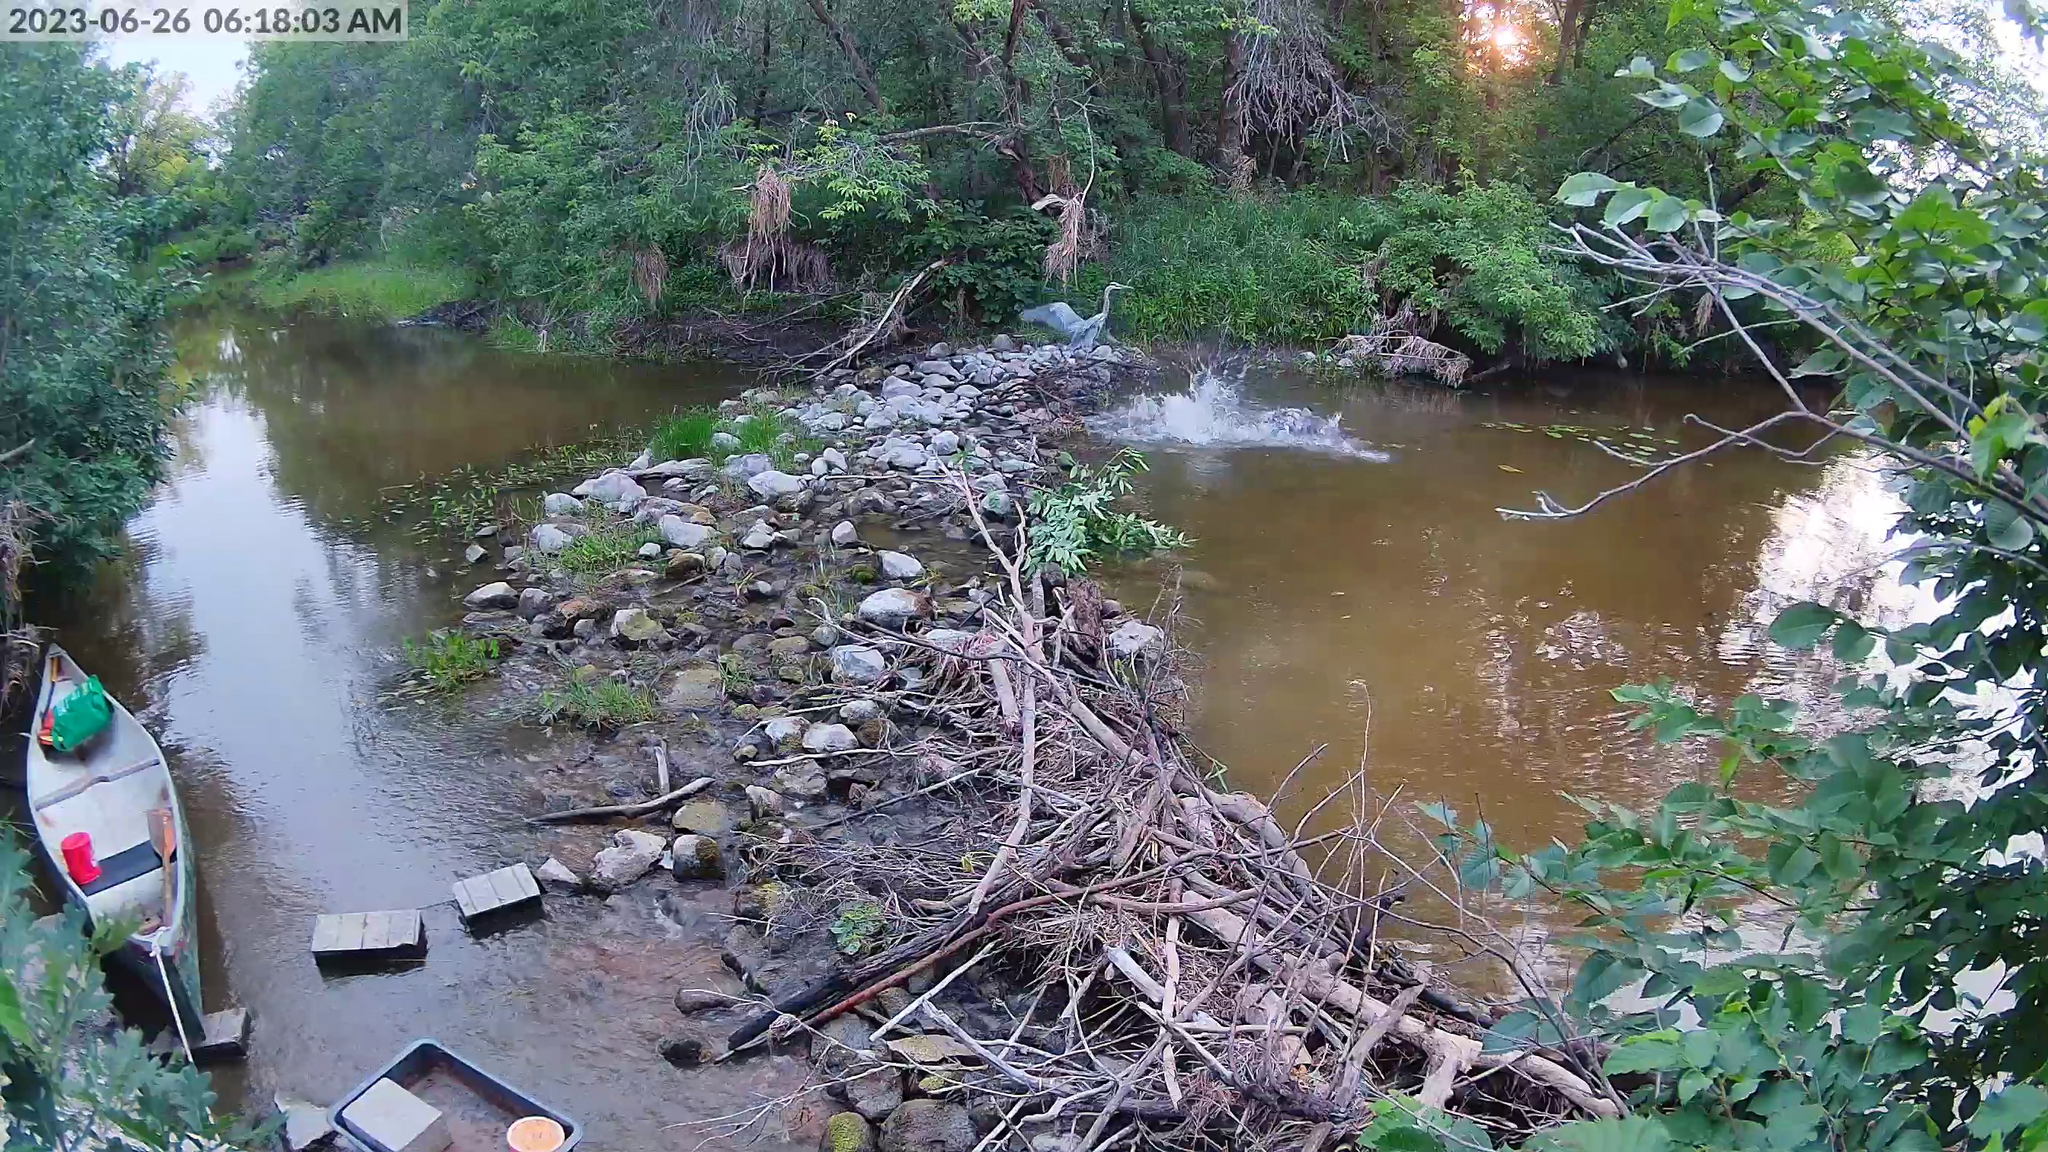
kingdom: Animalia
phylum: Chordata
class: Mammalia
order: Rodentia
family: Castoridae
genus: Castor
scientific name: Castor canadensis
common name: American beaver
